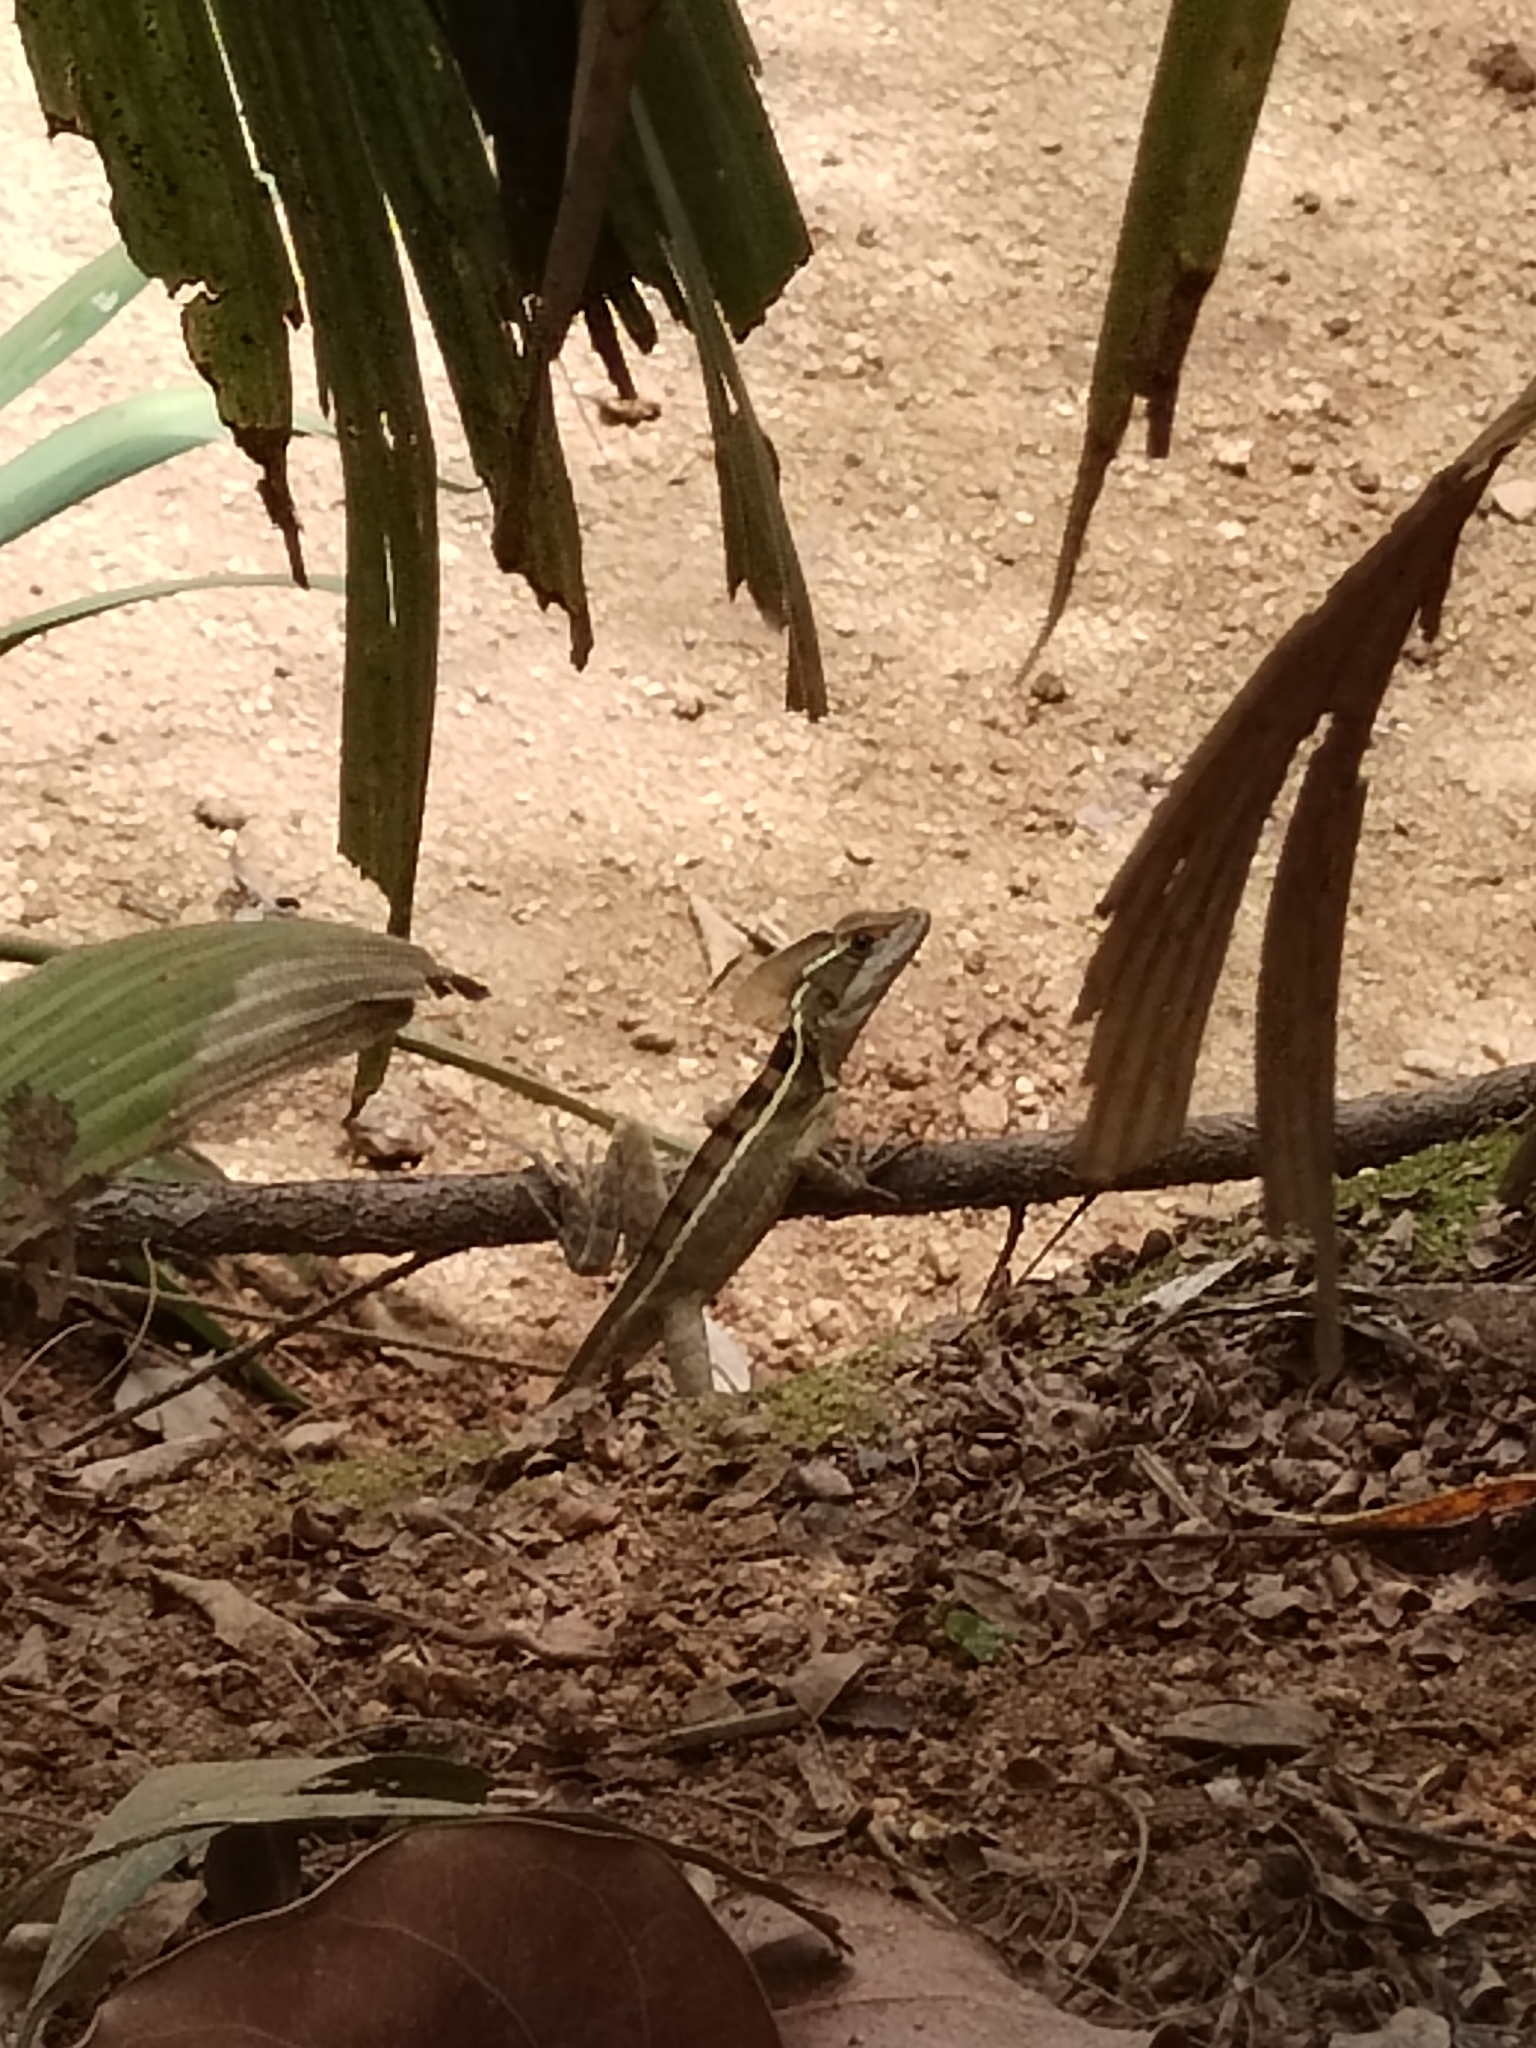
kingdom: Animalia
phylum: Chordata
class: Squamata
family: Corytophanidae
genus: Basiliscus
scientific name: Basiliscus vittatus
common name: Brown basilisk
